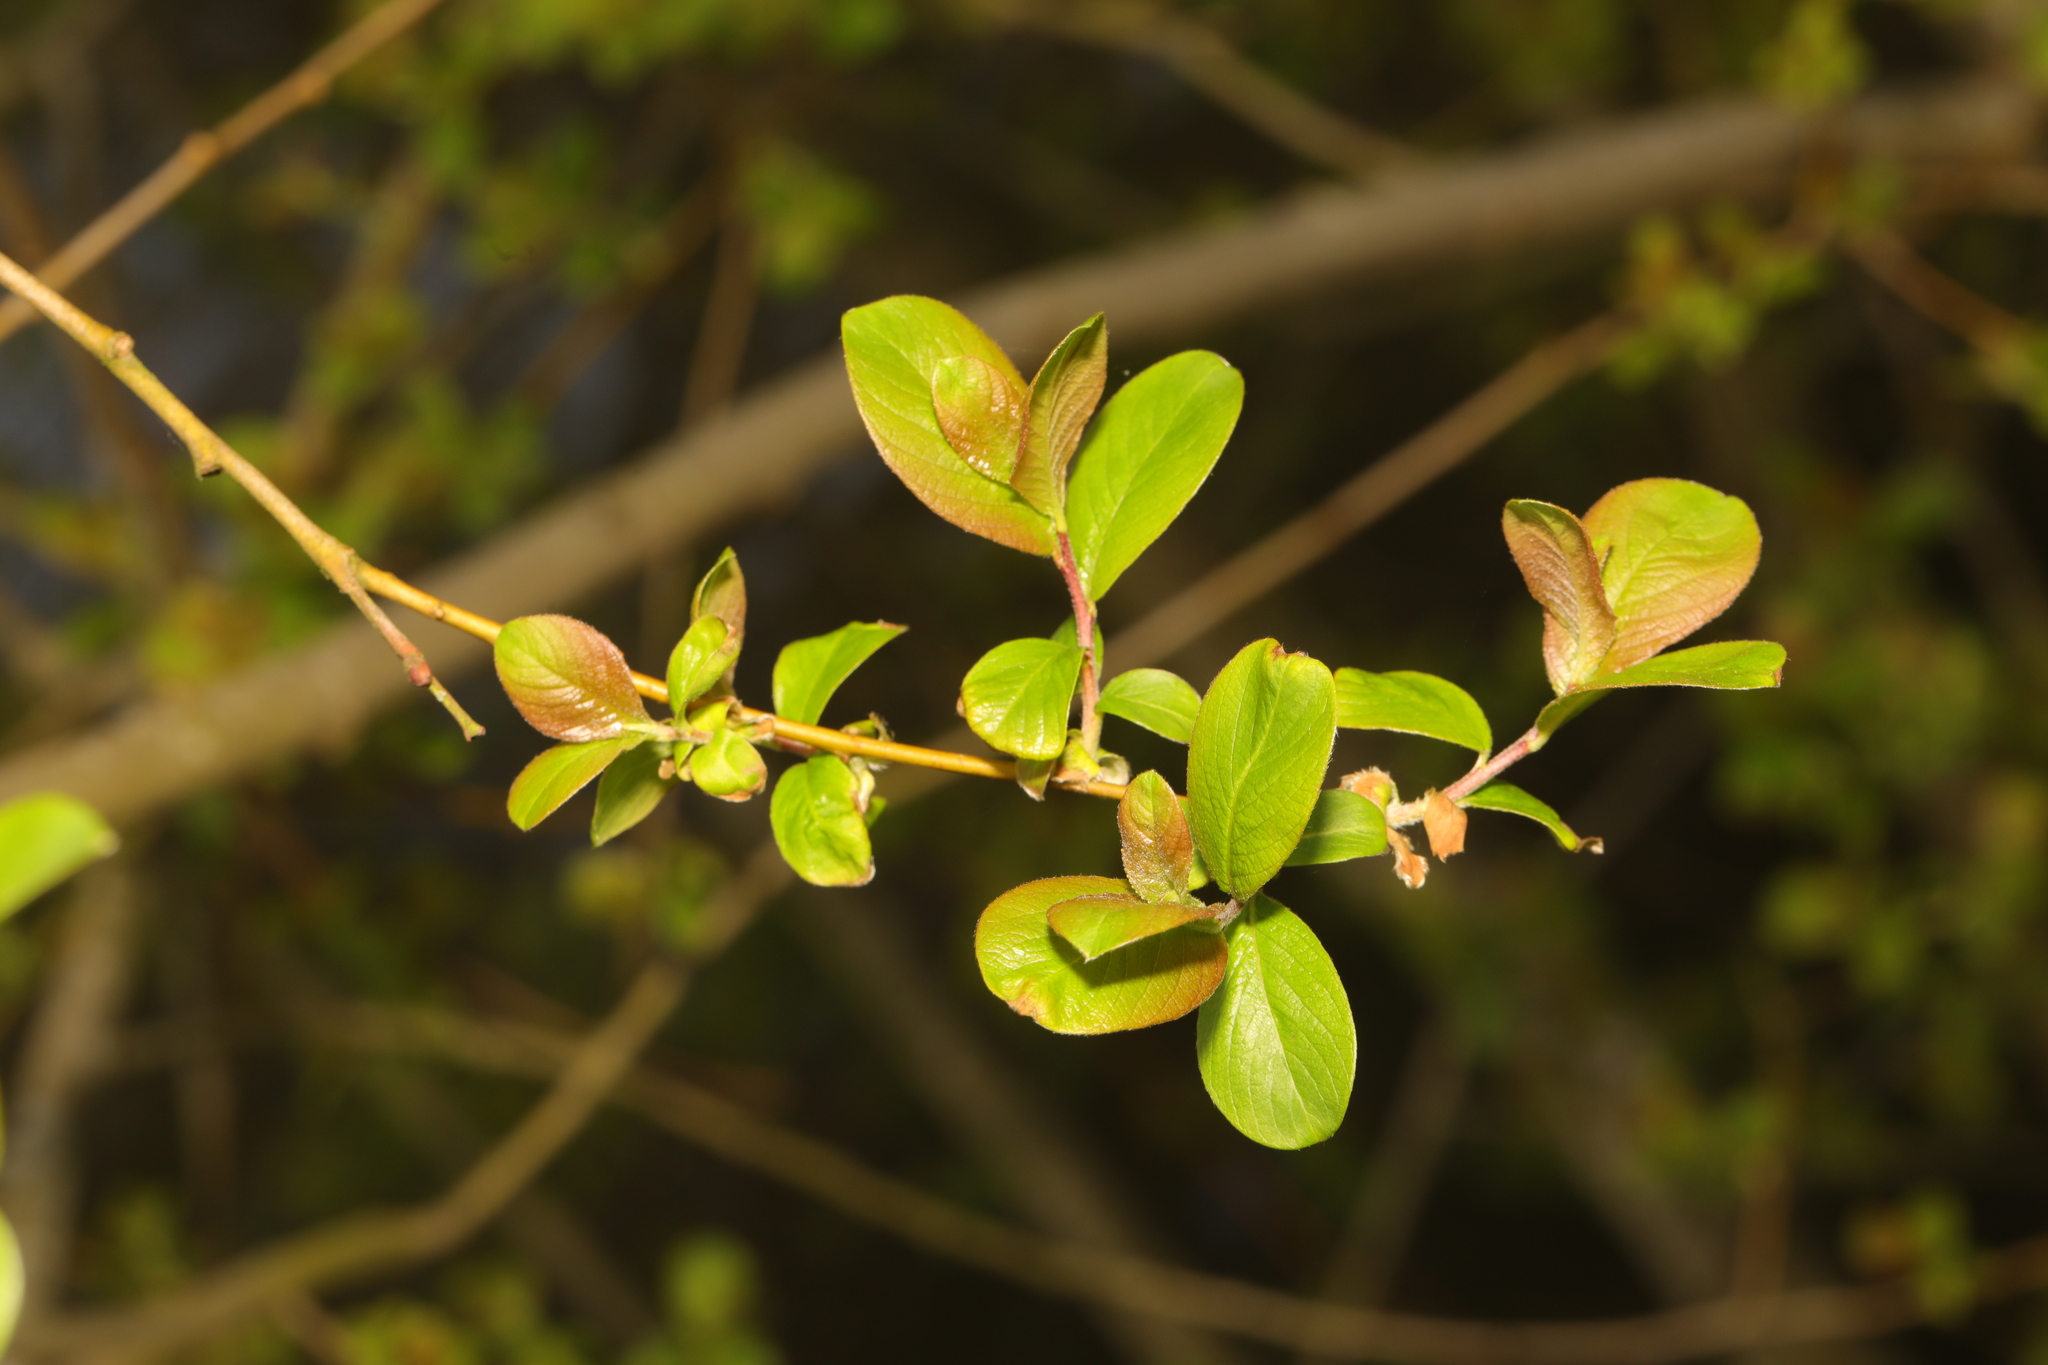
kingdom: Plantae
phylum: Tracheophyta
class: Magnoliopsida
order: Malpighiales
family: Salicaceae
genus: Salix
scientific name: Salix caprea
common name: Goat willow
